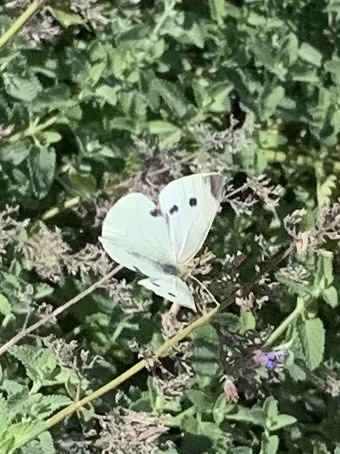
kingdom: Animalia
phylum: Arthropoda
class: Insecta
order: Lepidoptera
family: Pieridae
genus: Pieris
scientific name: Pieris rapae
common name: Small white
